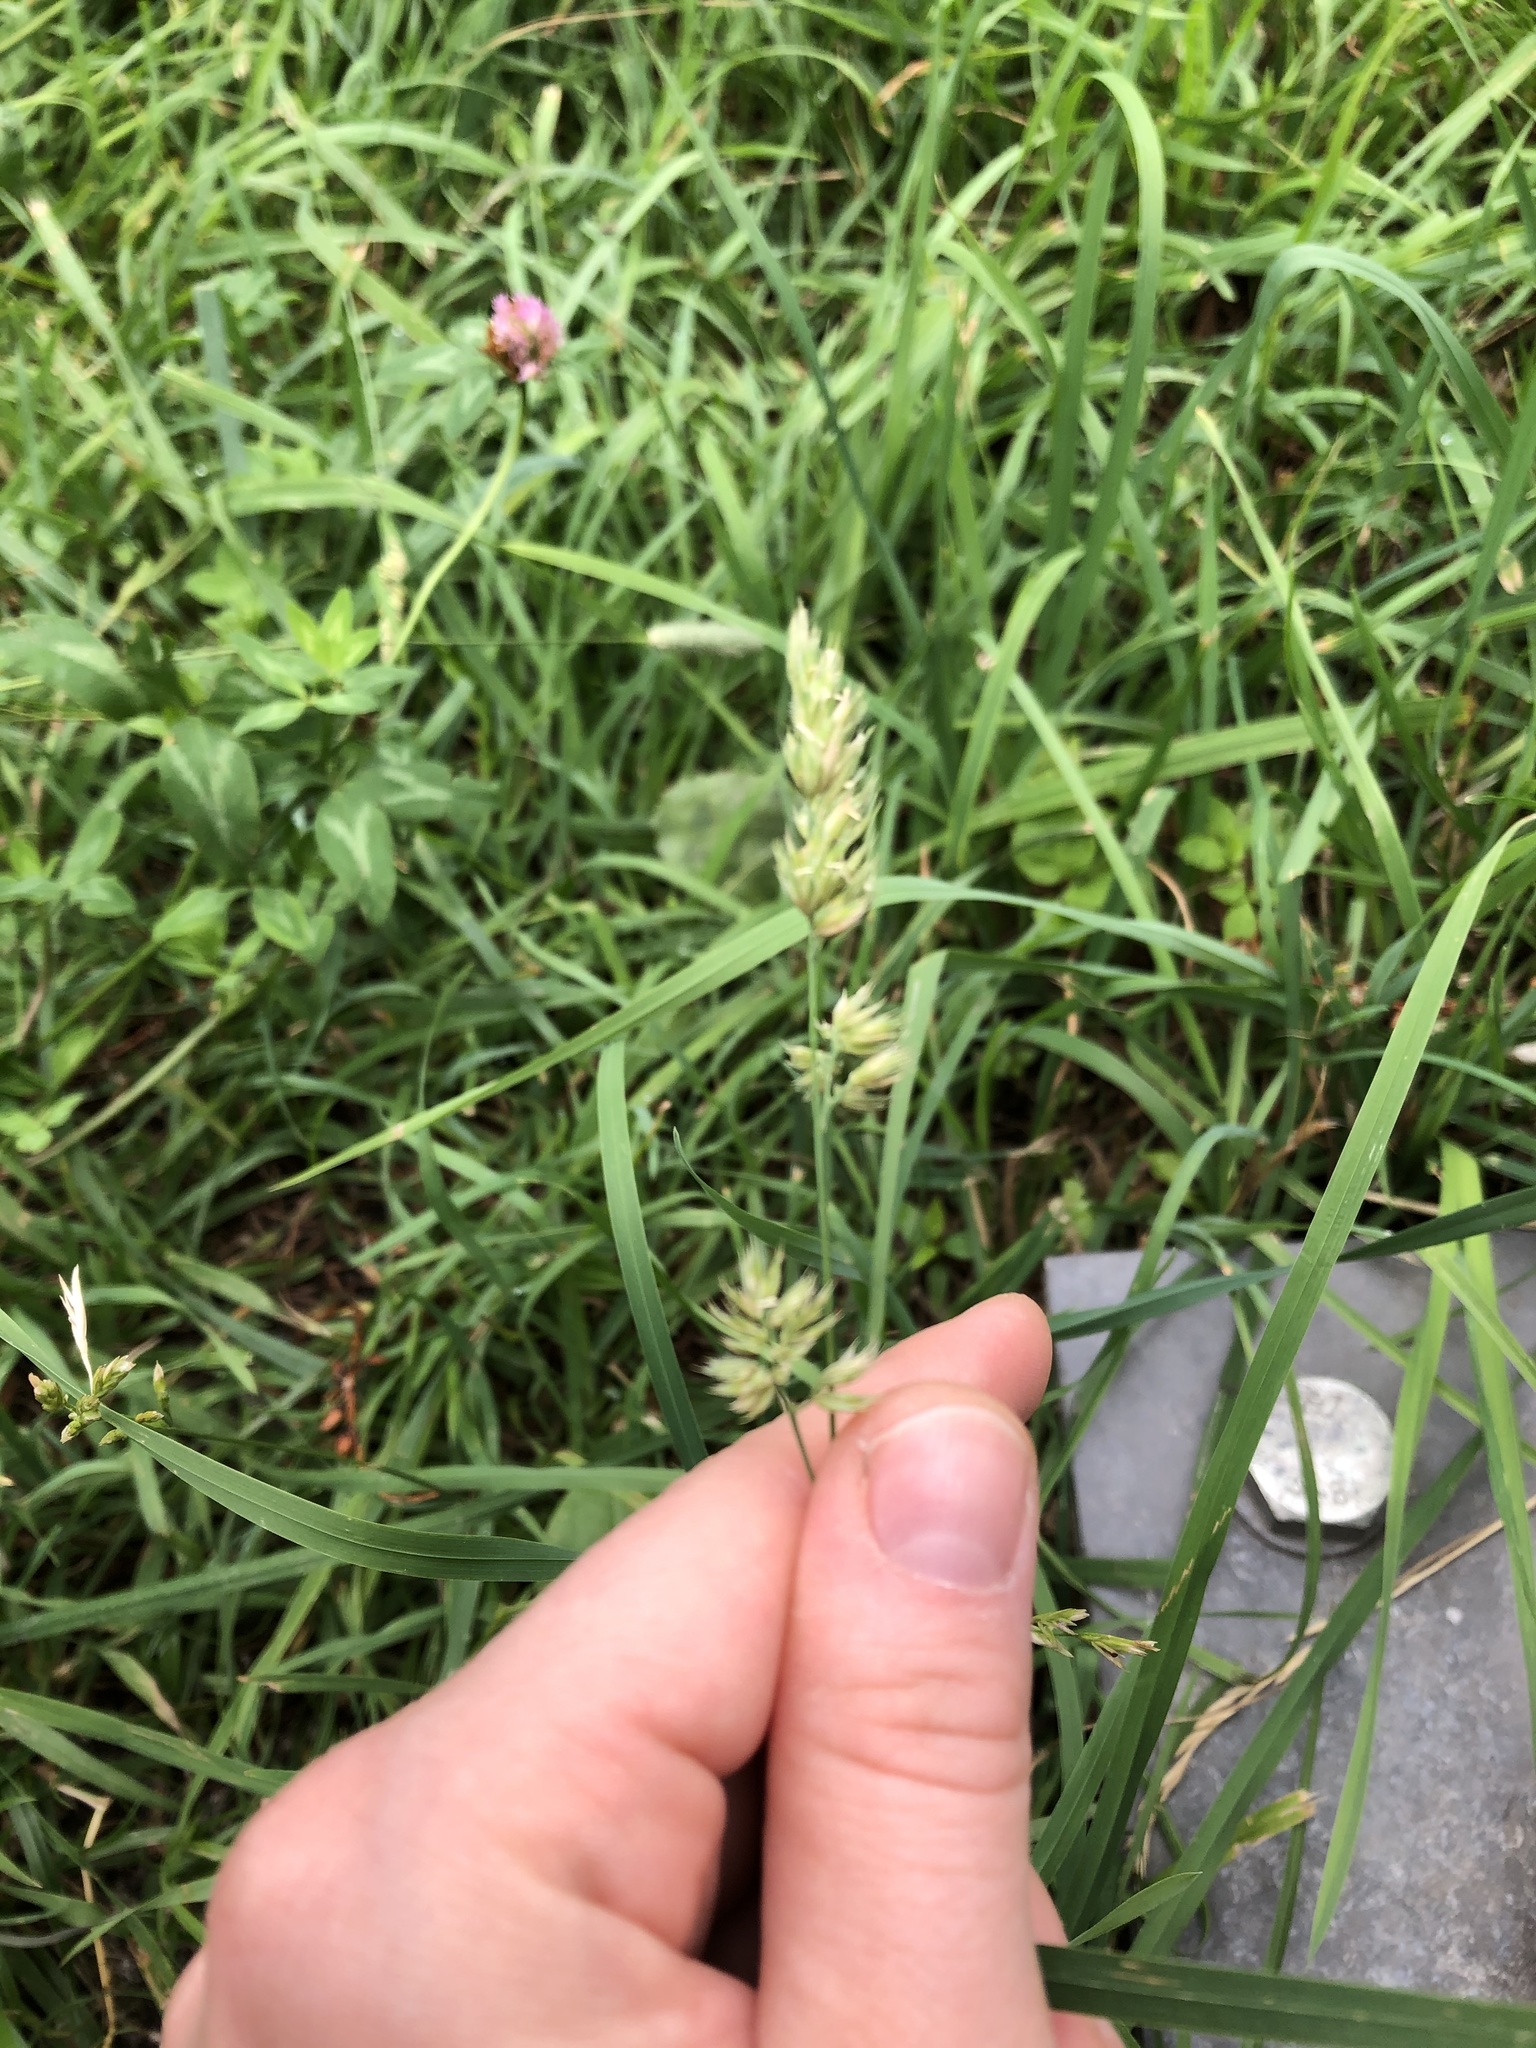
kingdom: Plantae
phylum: Tracheophyta
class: Liliopsida
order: Poales
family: Poaceae
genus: Dactylis
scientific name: Dactylis glomerata
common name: Orchardgrass
